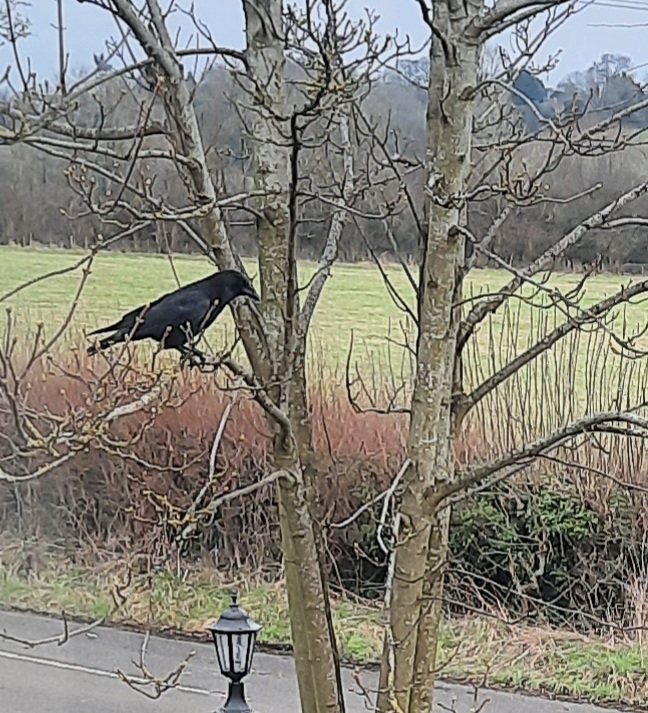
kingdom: Animalia
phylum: Chordata
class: Aves
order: Passeriformes
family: Corvidae
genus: Corvus
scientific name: Corvus corone
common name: Carrion crow
